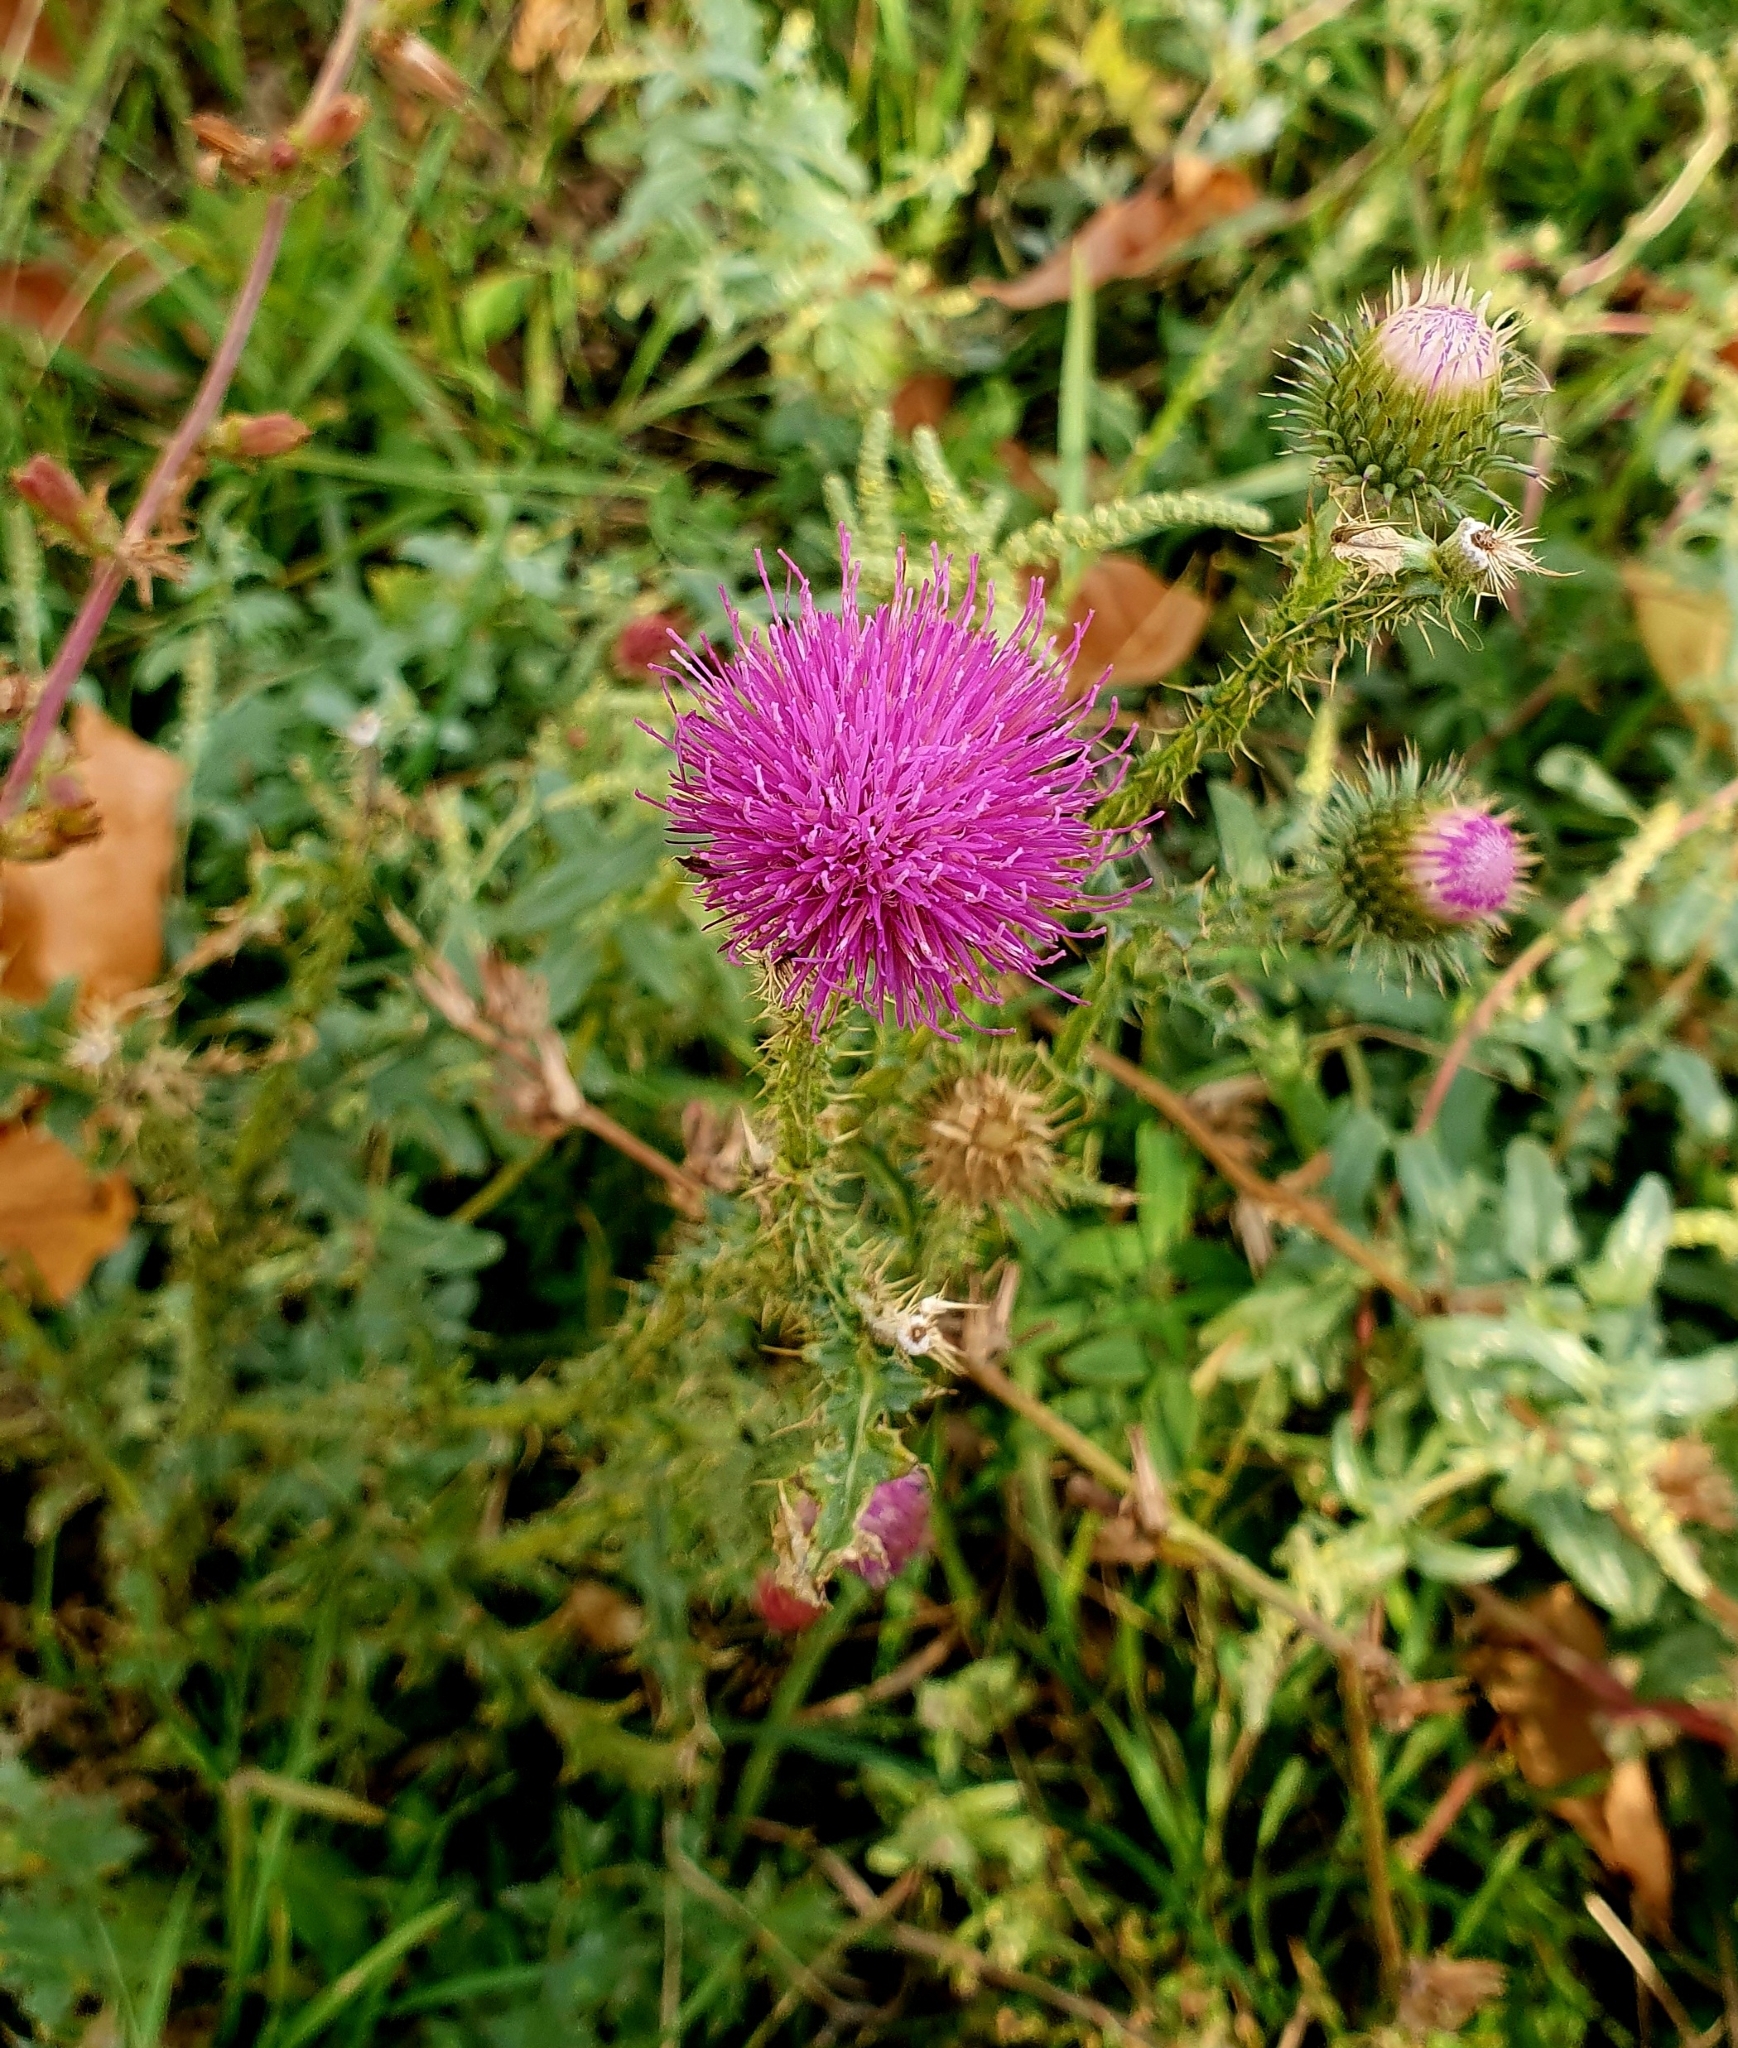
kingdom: Plantae
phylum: Tracheophyta
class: Magnoliopsida
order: Asterales
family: Asteraceae
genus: Carduus
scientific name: Carduus acanthoides
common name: Plumeless thistle
